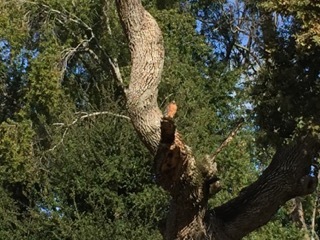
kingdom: Animalia
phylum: Chordata
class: Aves
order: Accipitriformes
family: Accipitridae
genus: Buteo
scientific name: Buteo lineatus
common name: Red-shouldered hawk
